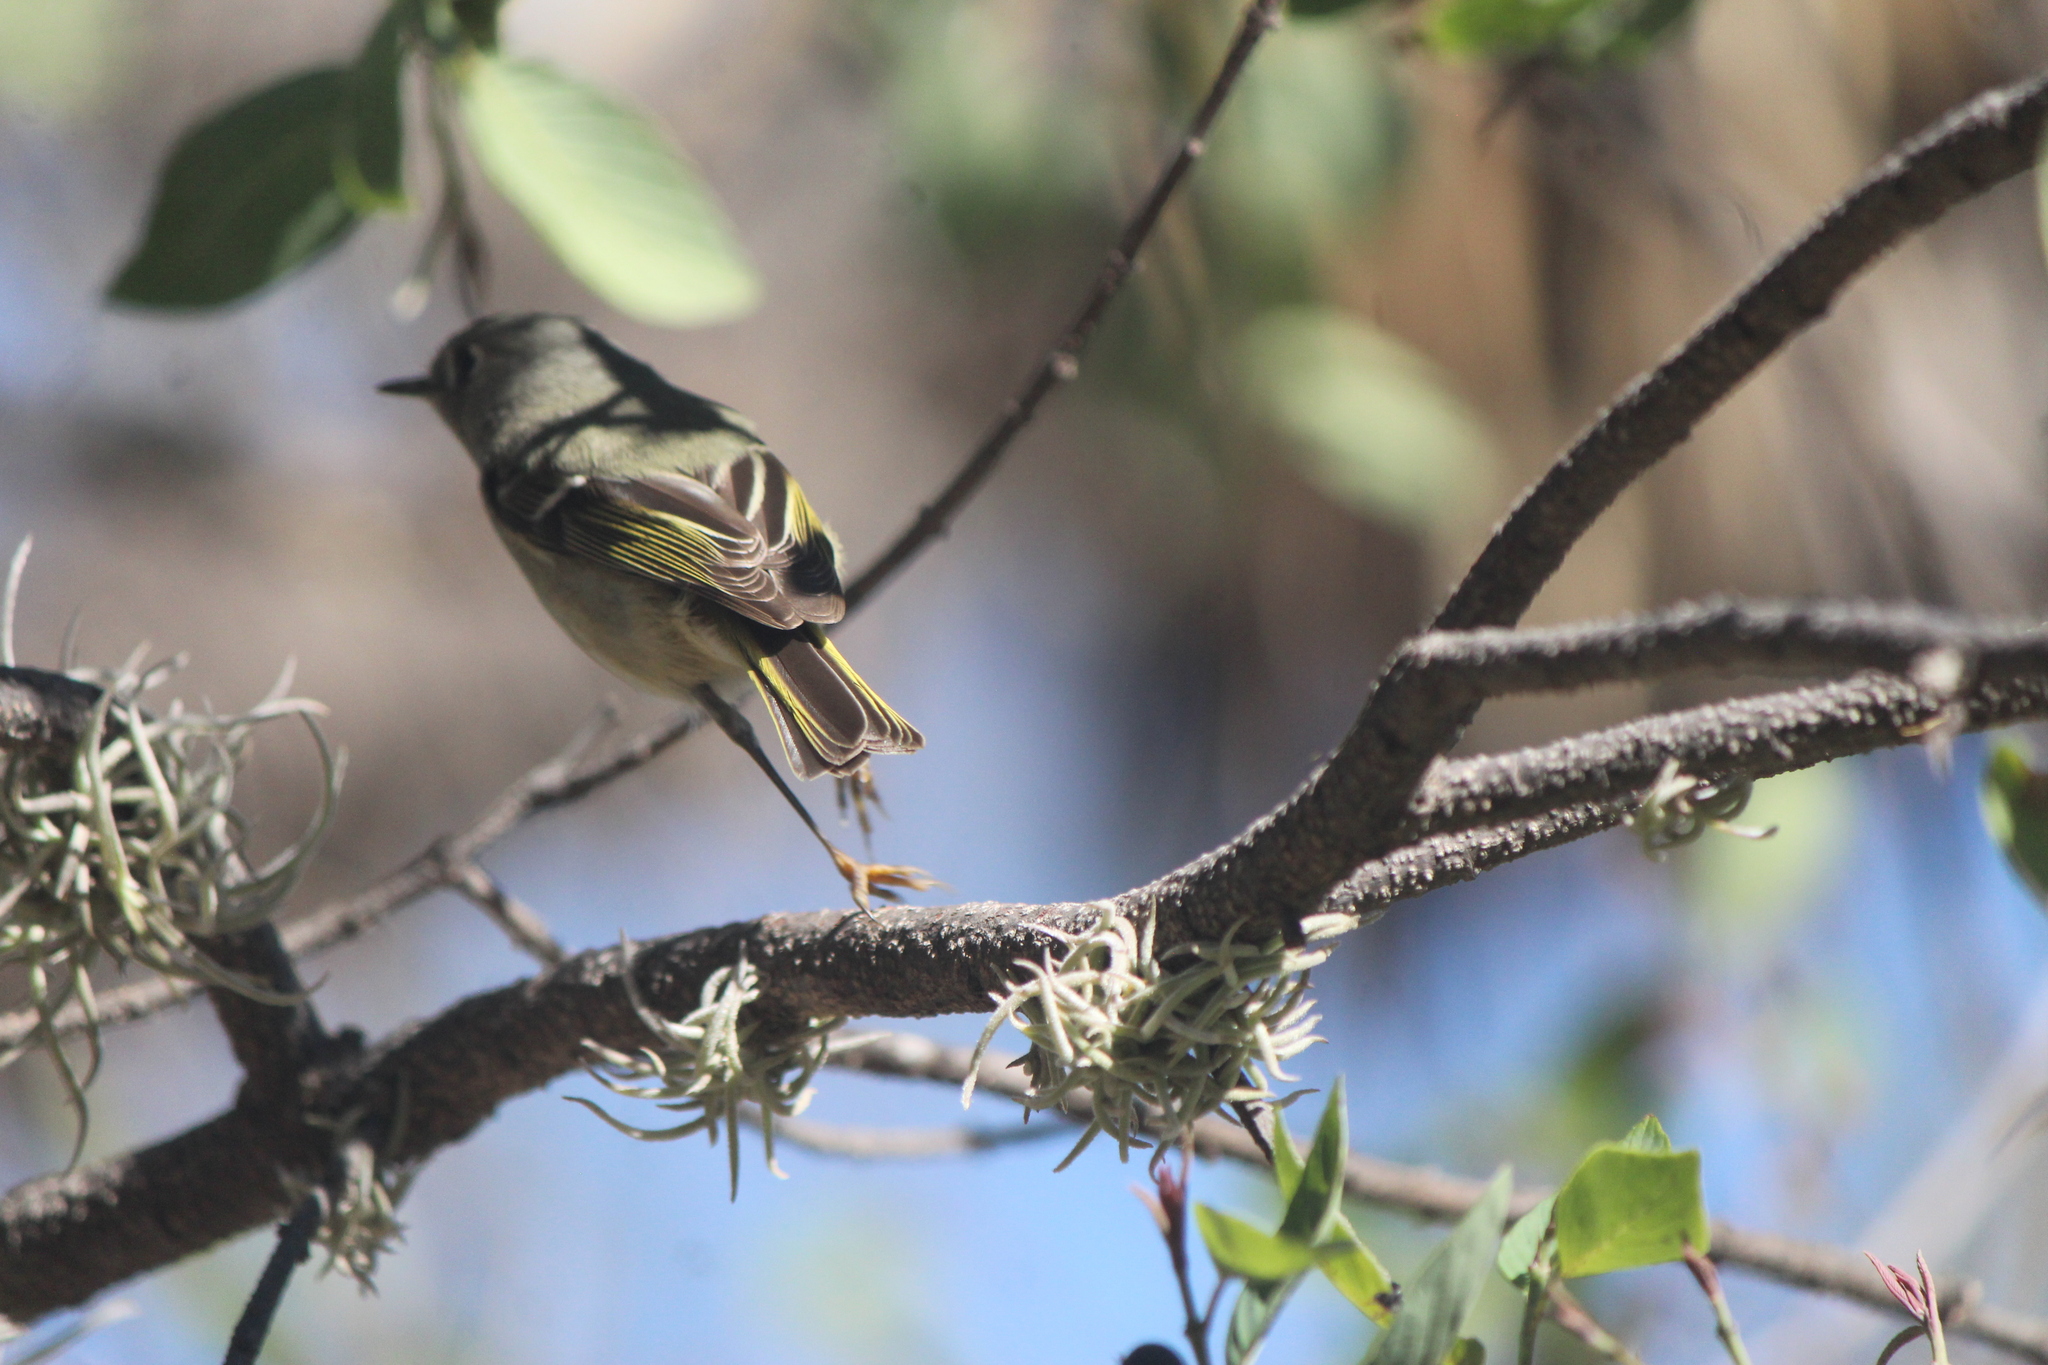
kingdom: Animalia
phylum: Chordata
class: Aves
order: Passeriformes
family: Regulidae
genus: Regulus
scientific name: Regulus calendula
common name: Ruby-crowned kinglet
